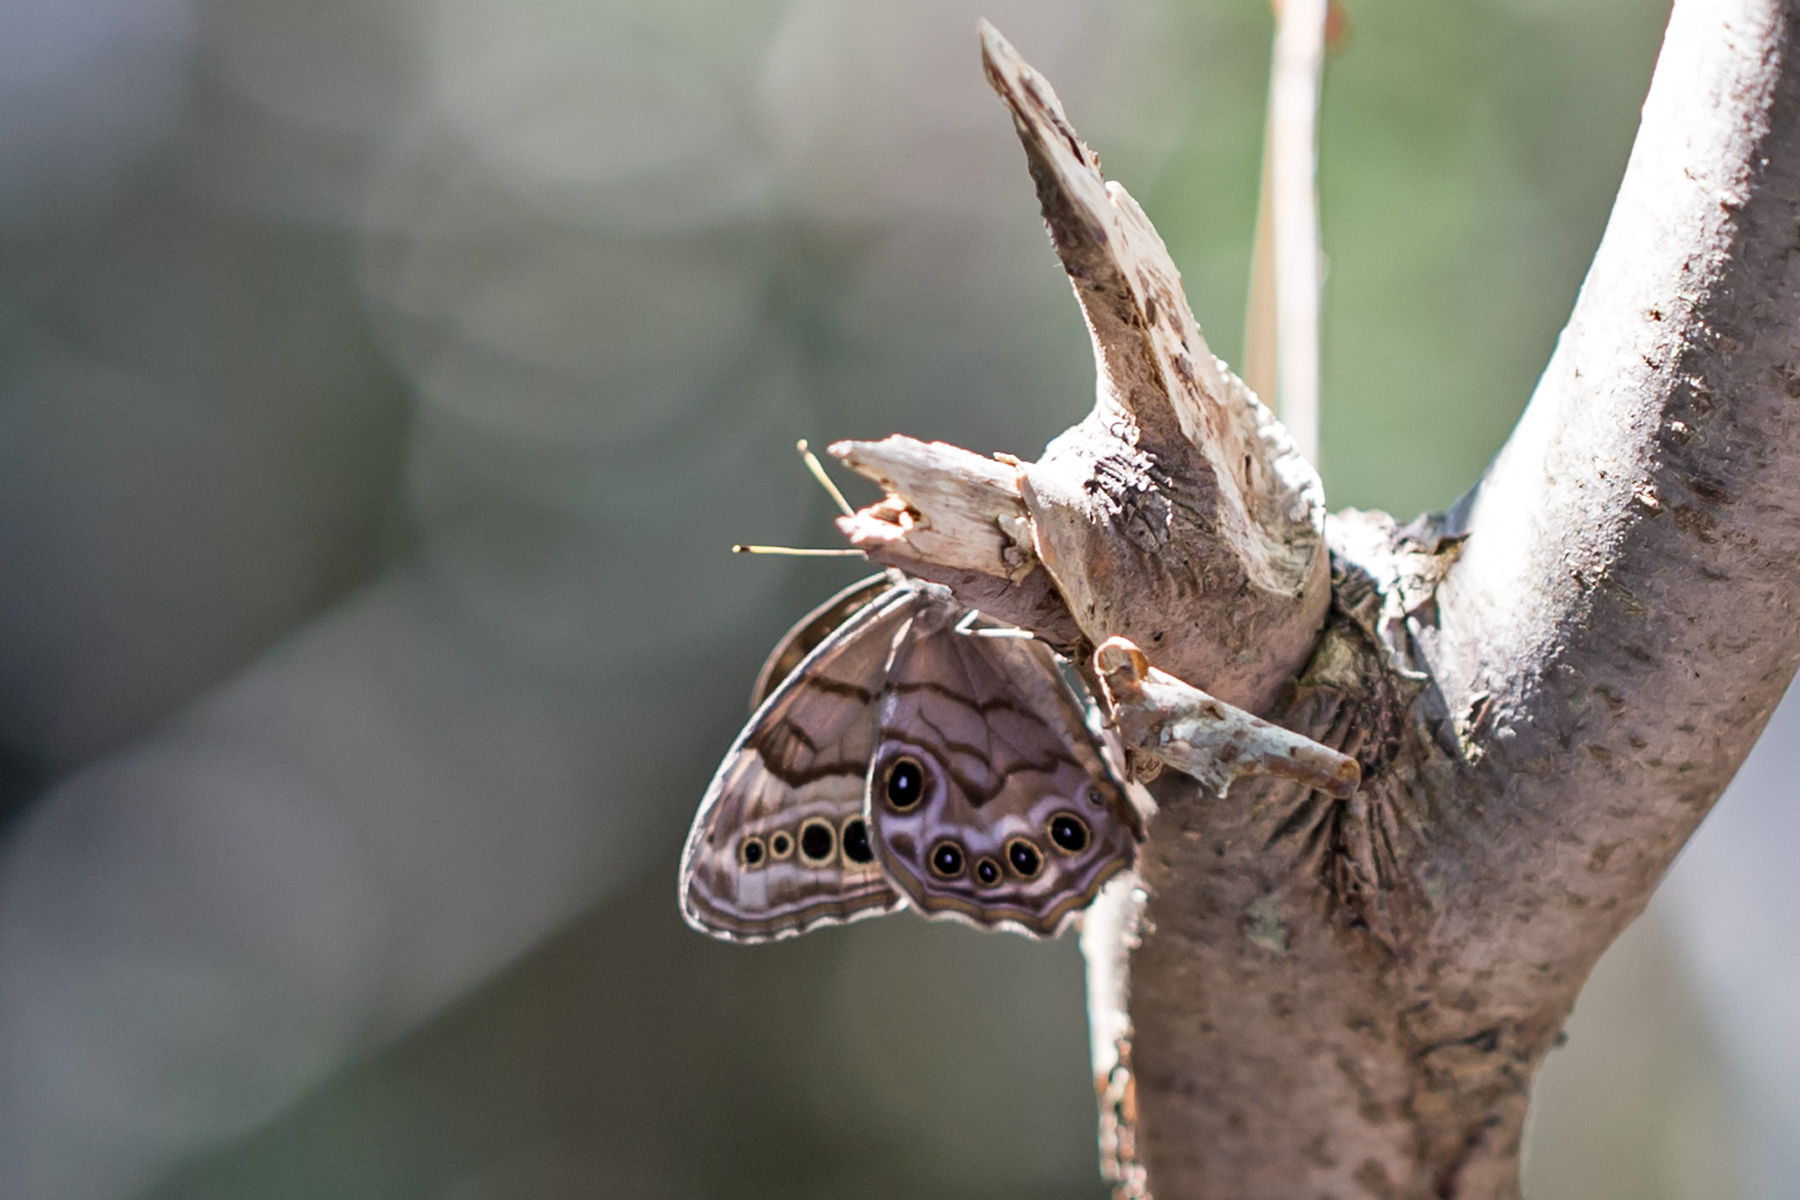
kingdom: Animalia
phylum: Arthropoda
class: Insecta
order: Lepidoptera
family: Nymphalidae
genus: Lethe
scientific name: Lethe anthedon
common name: Northern pearly-eye
